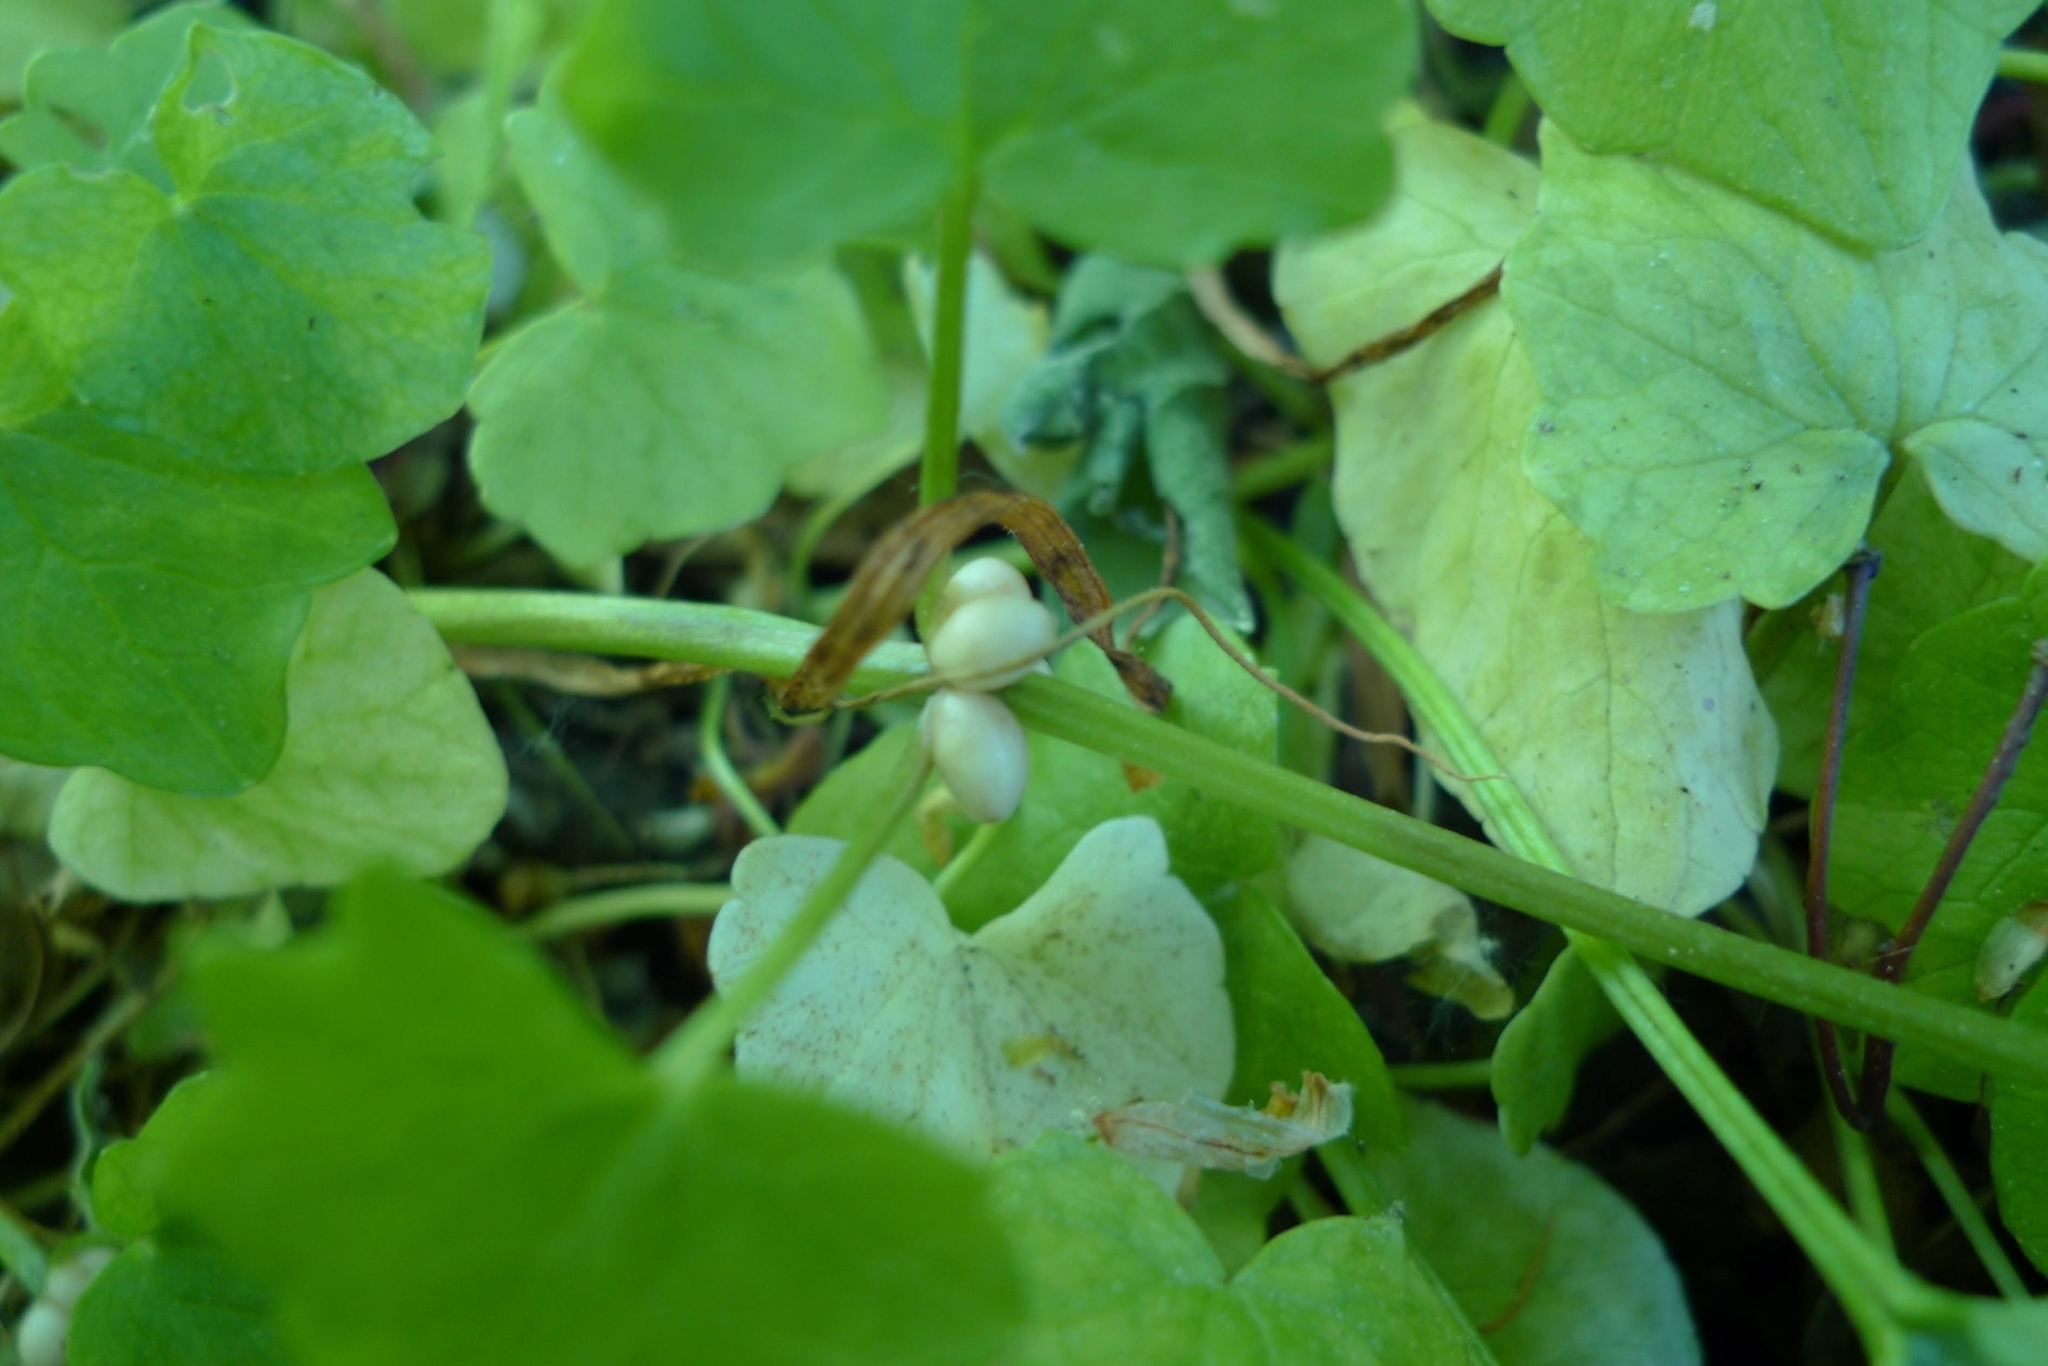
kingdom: Plantae
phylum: Tracheophyta
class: Magnoliopsida
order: Ranunculales
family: Ranunculaceae
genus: Ficaria
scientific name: Ficaria verna
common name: Lesser celandine
